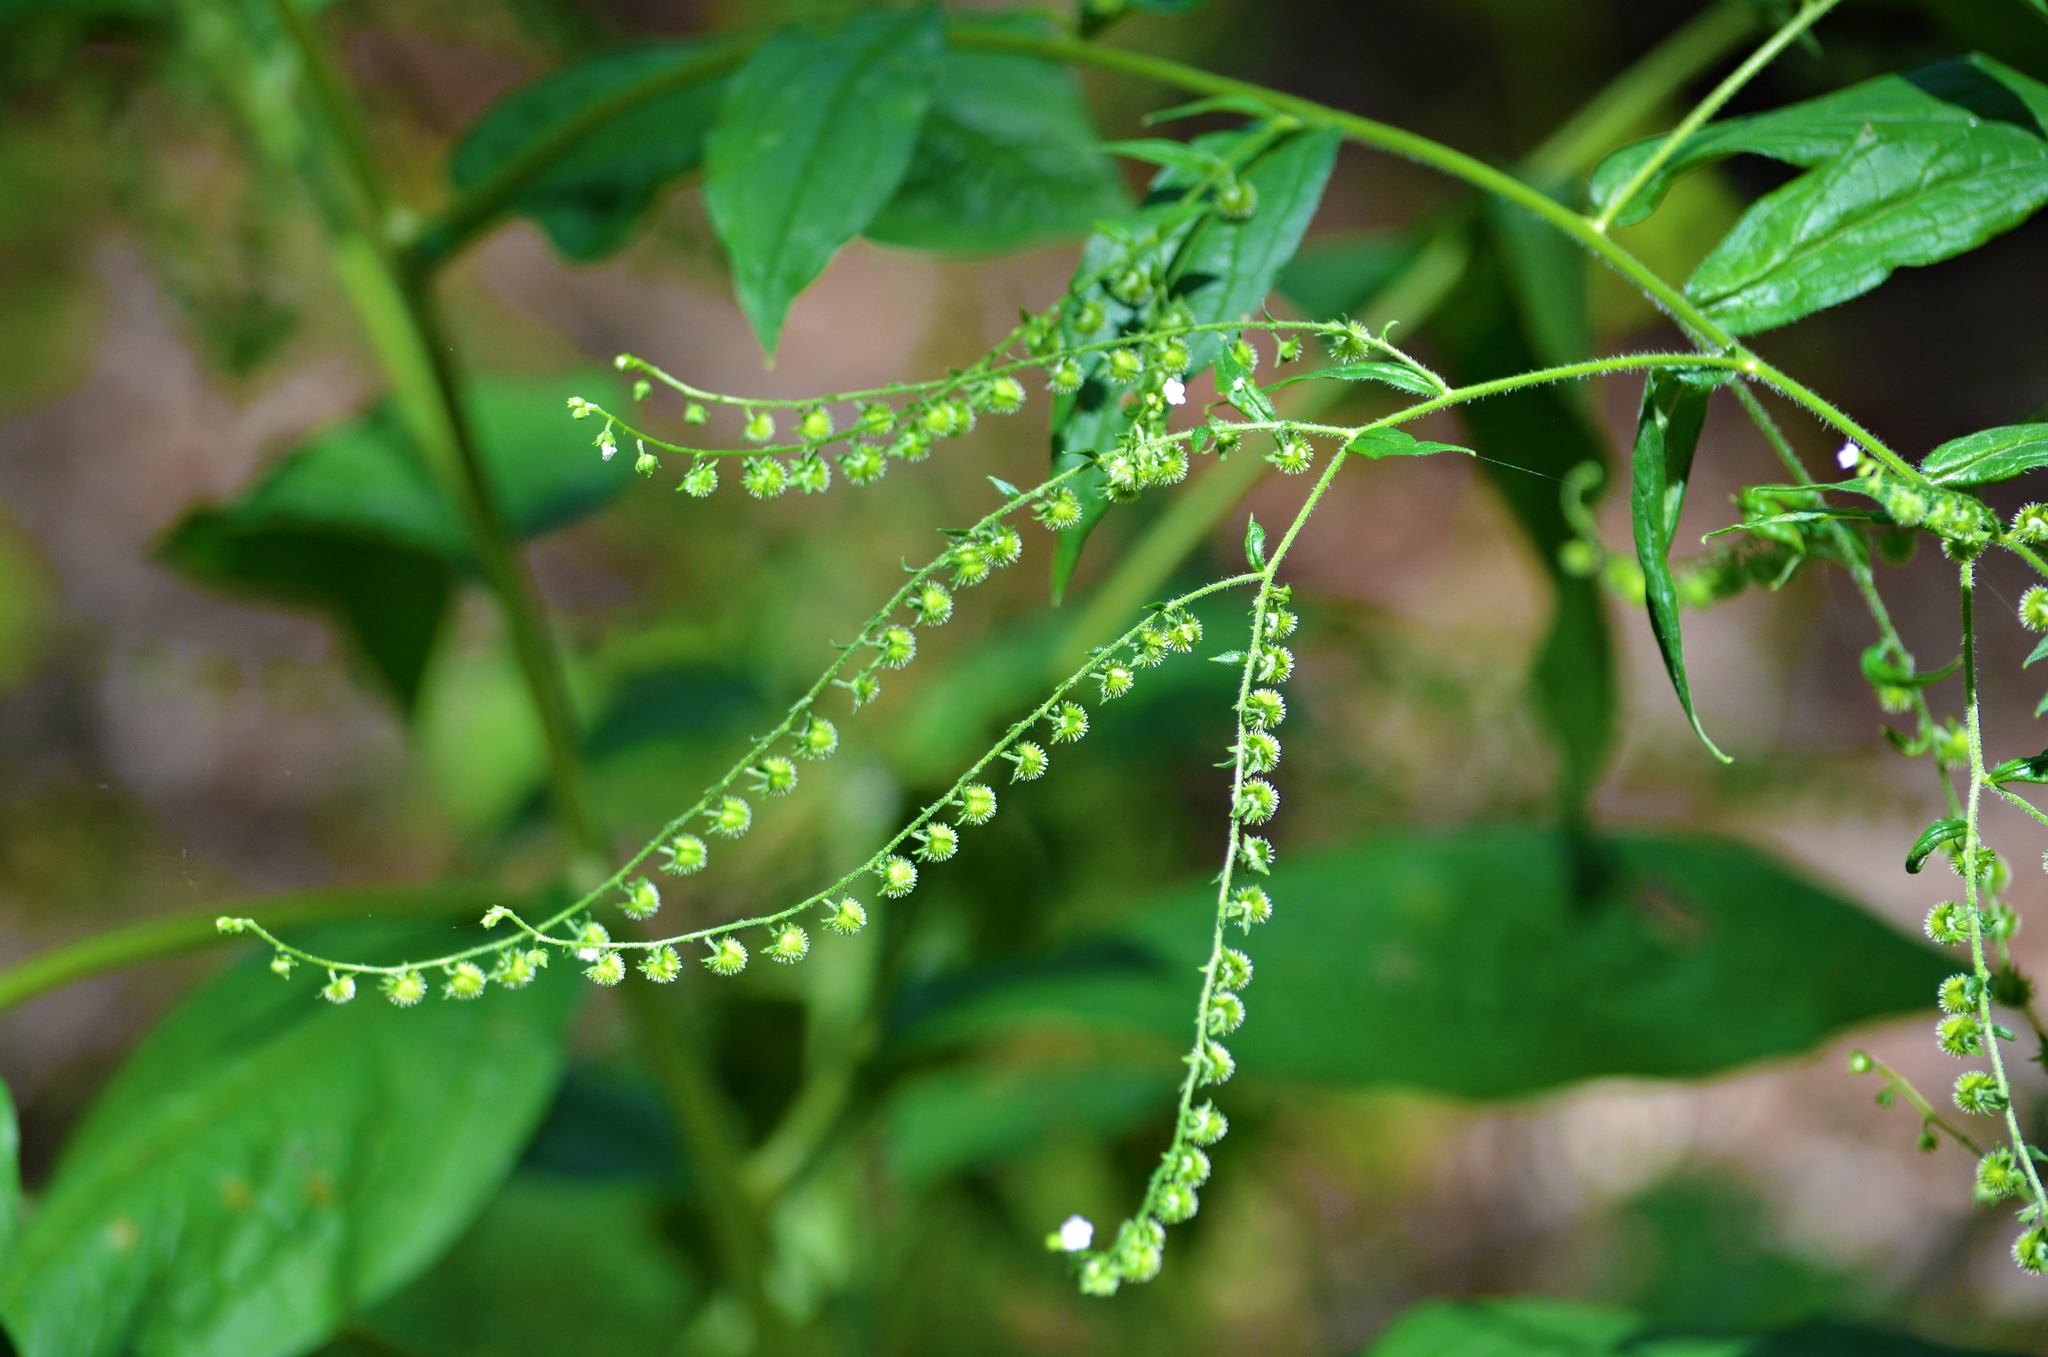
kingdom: Plantae
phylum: Tracheophyta
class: Magnoliopsida
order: Boraginales
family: Boraginaceae
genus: Hackelia
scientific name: Hackelia virginiana
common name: Beggar's-lice
